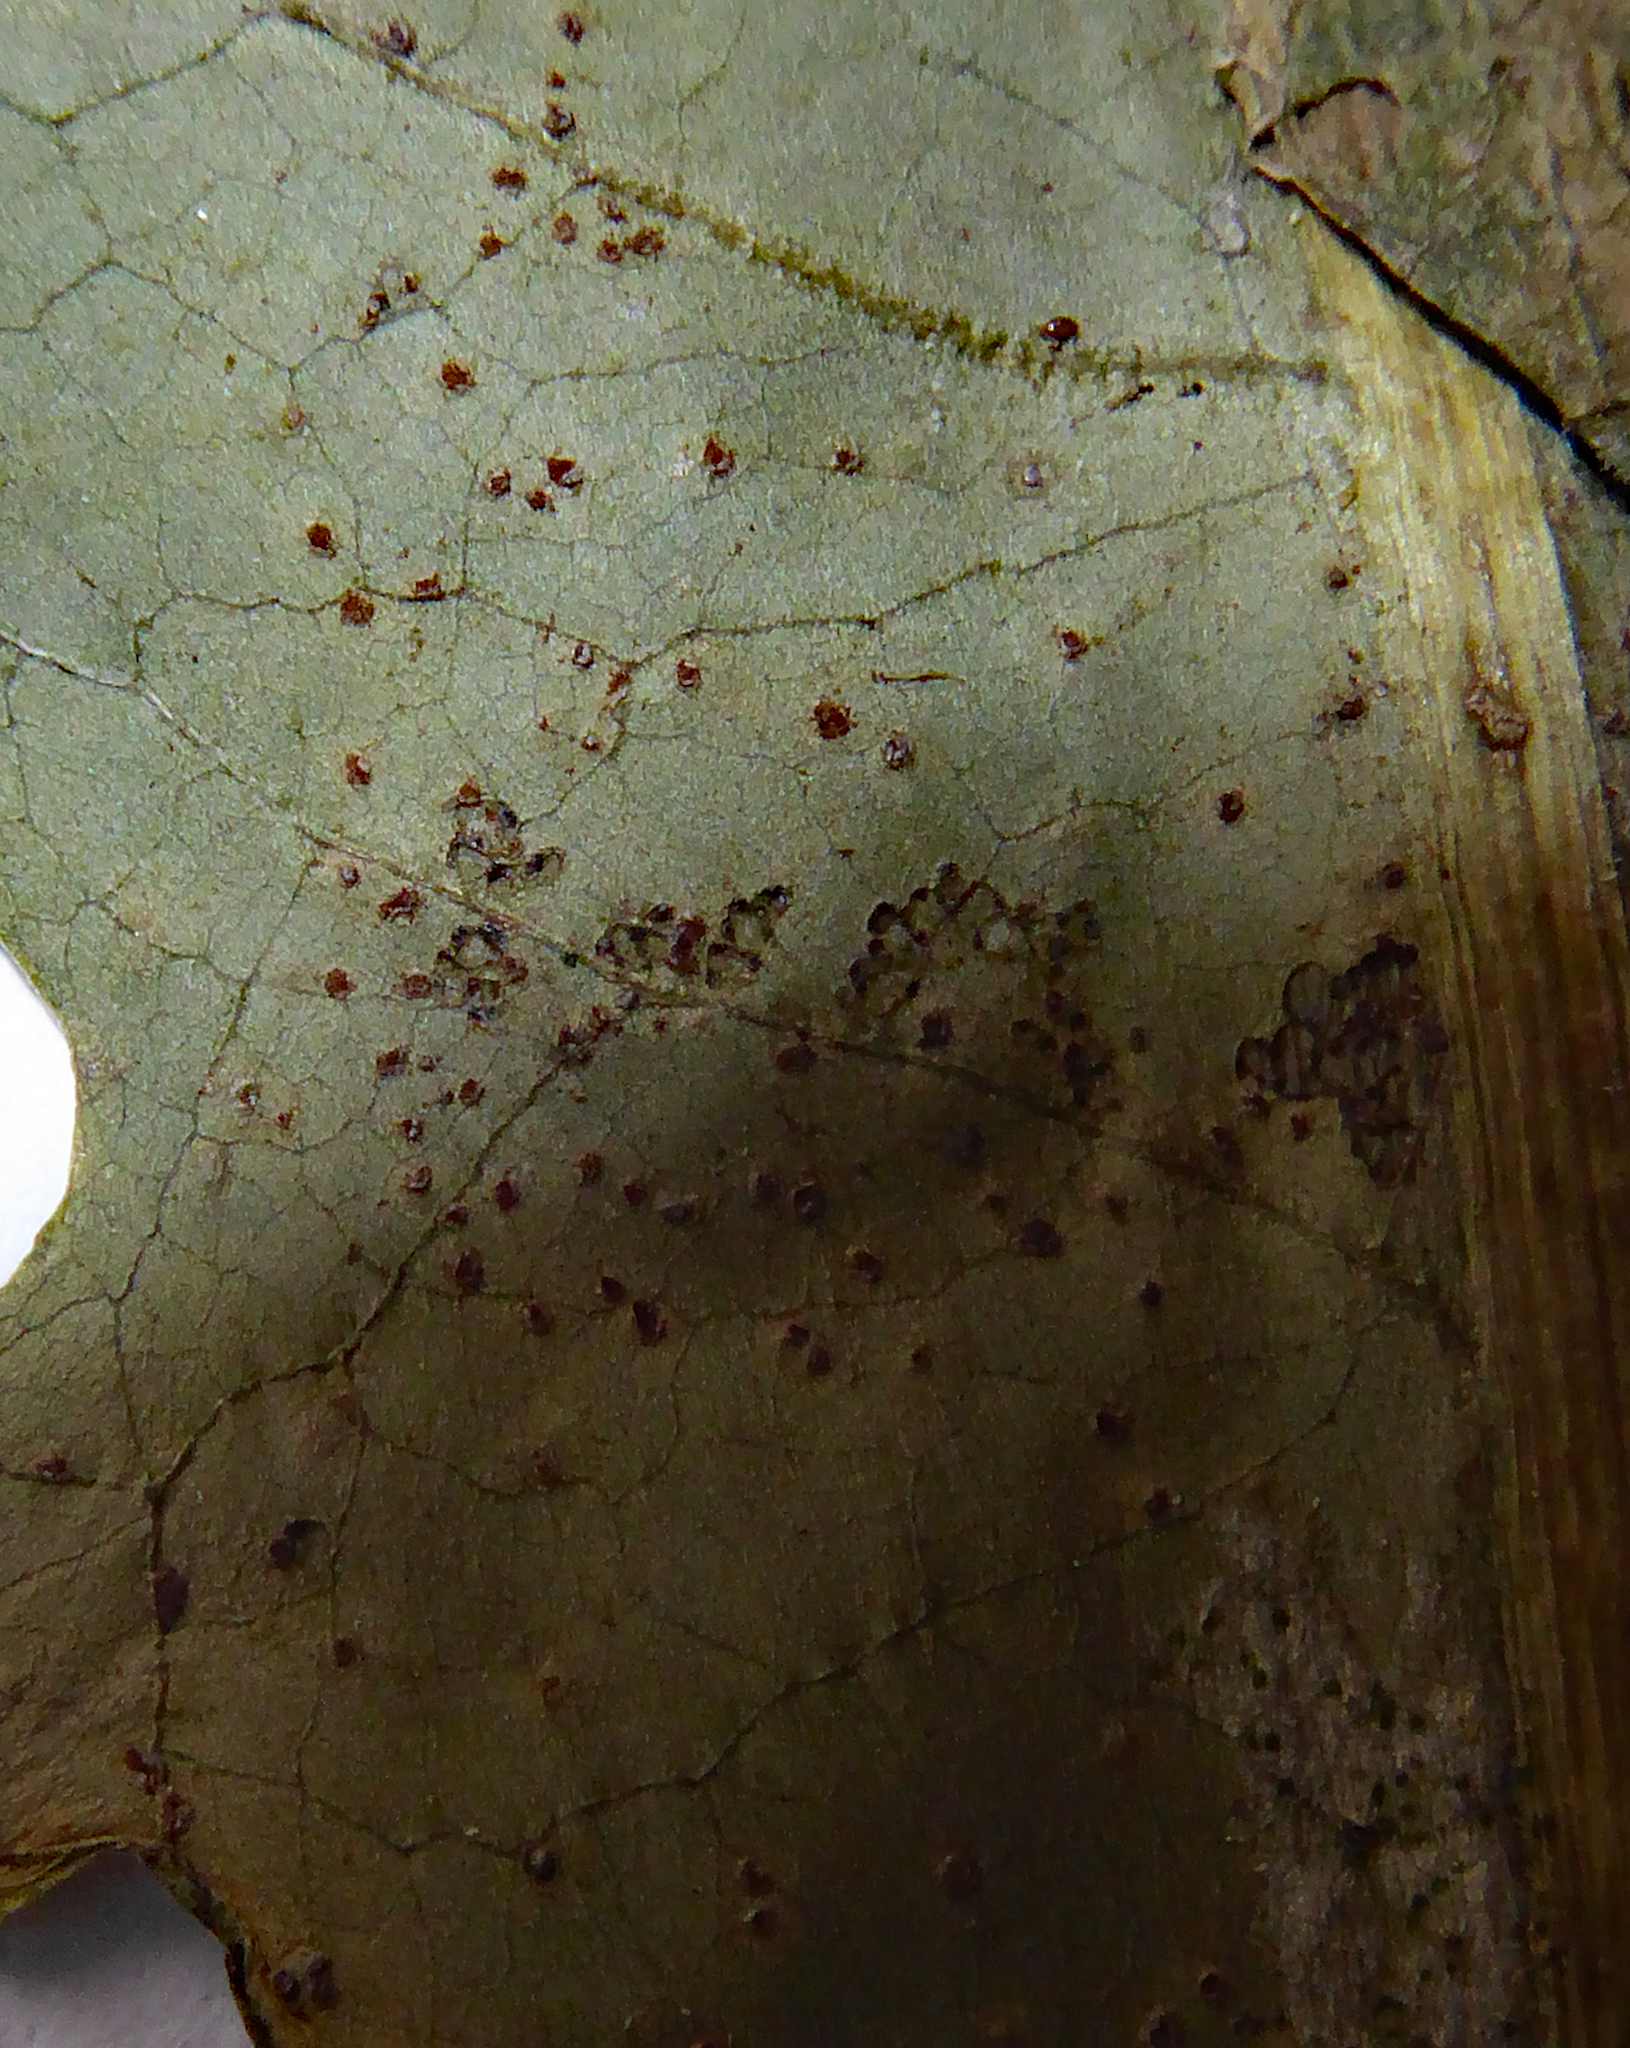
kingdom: Fungi
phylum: Basidiomycota
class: Pucciniomycetes
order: Pucciniales
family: Pucciniaceae
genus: Puccinia
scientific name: Puccinia variabilis
